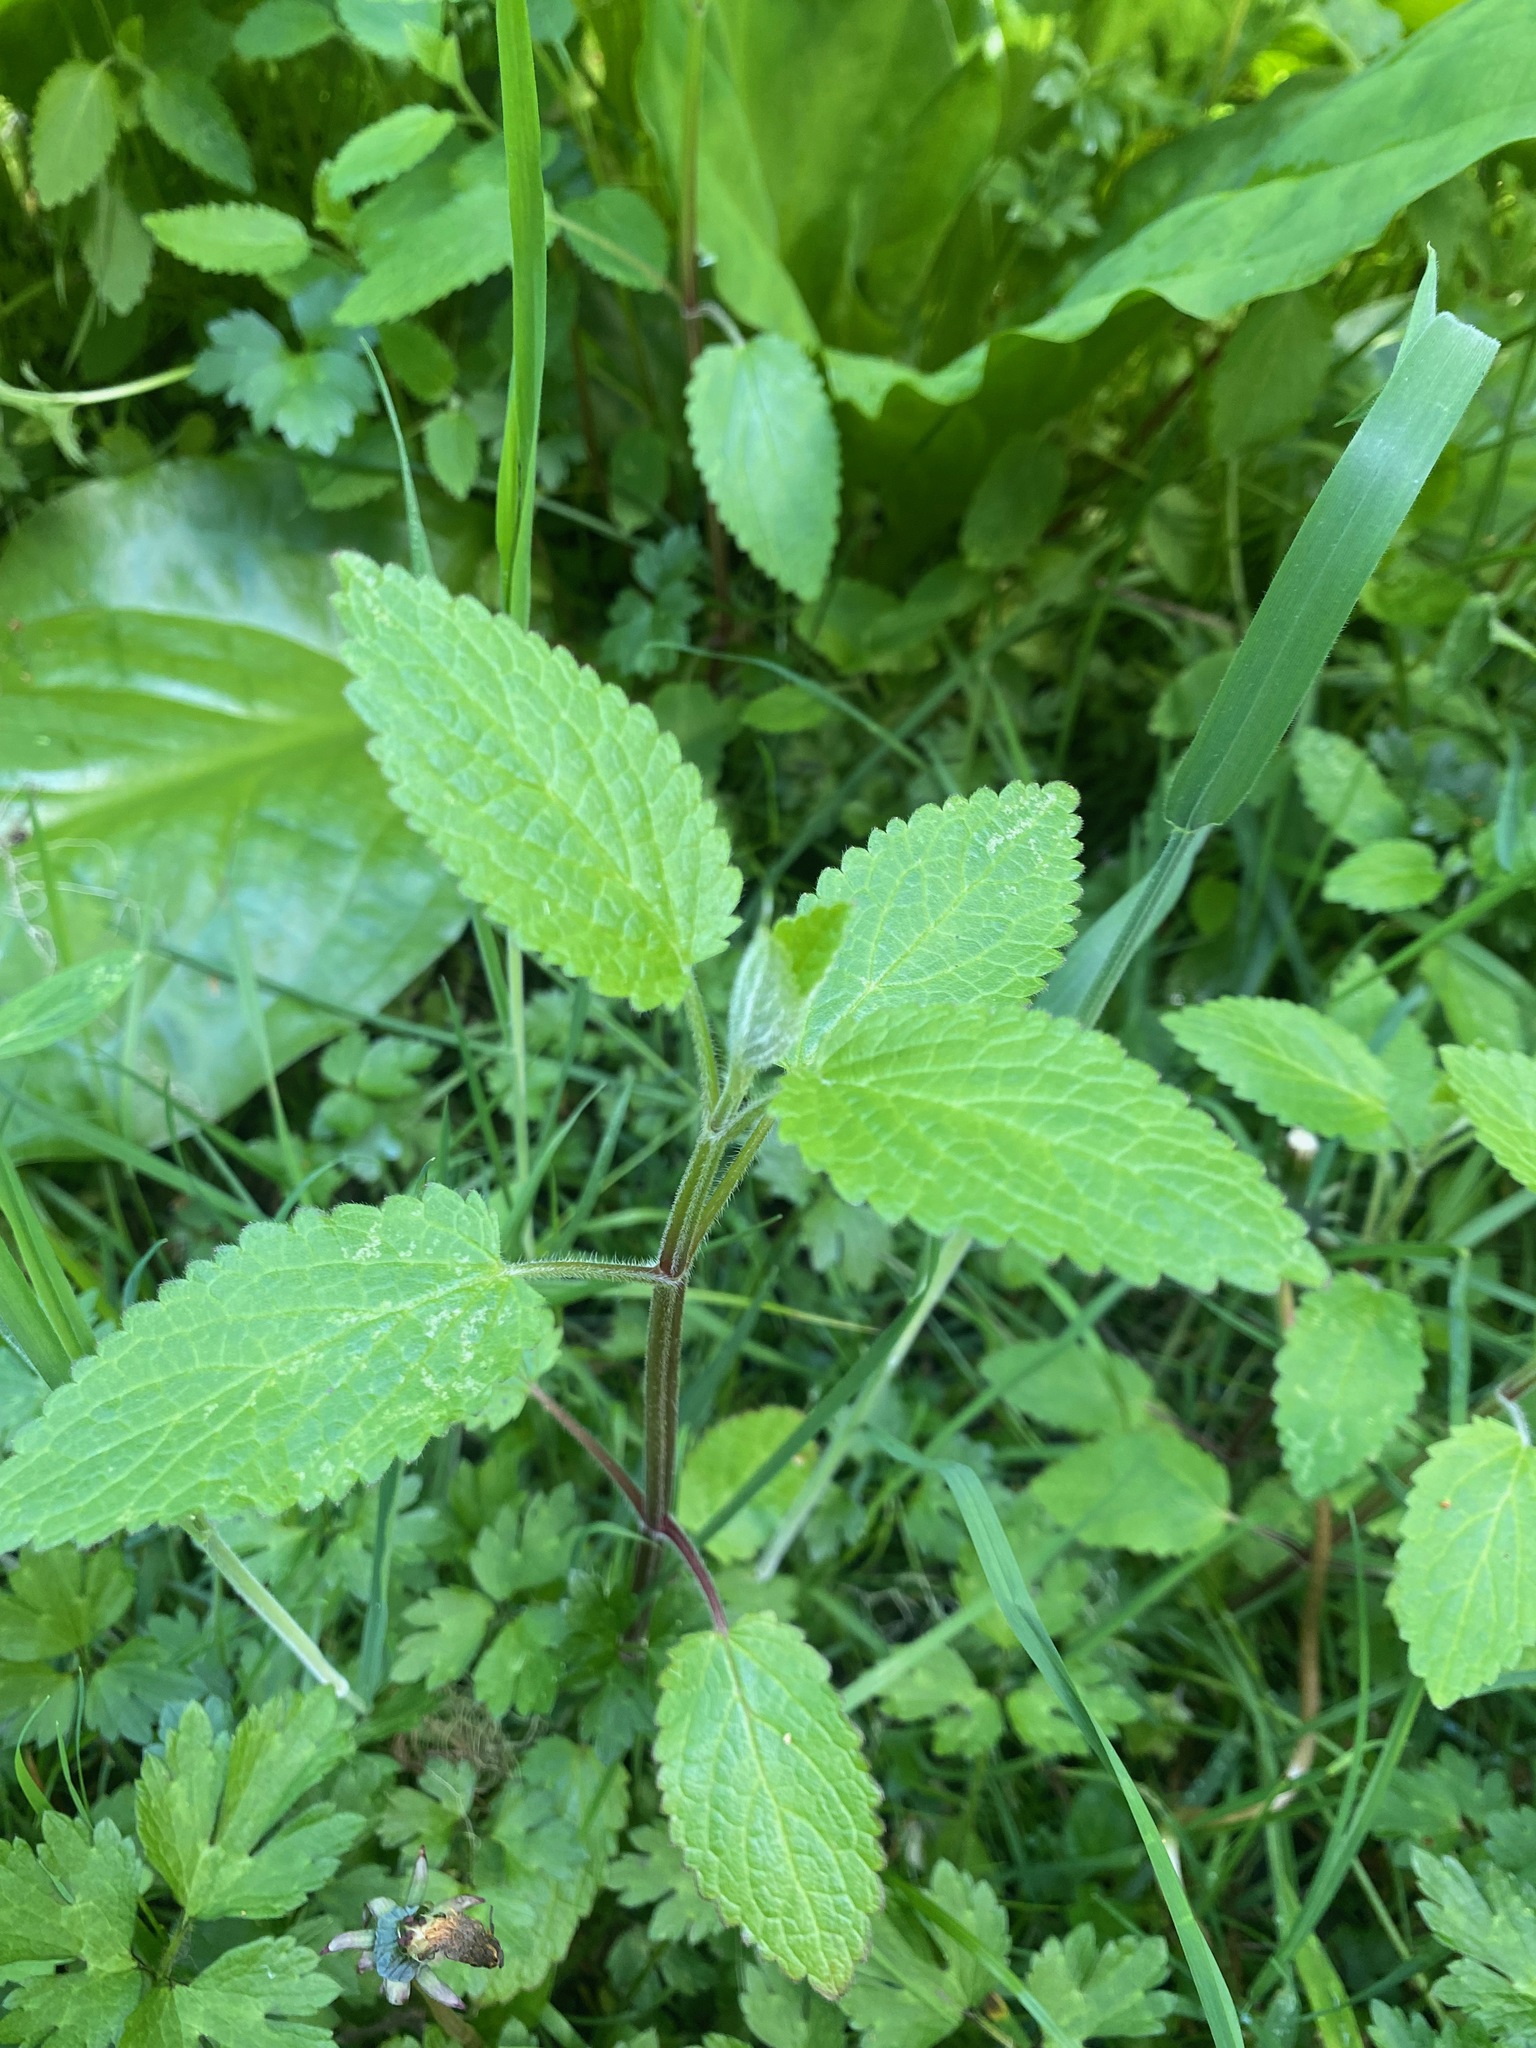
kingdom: Plantae
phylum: Tracheophyta
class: Magnoliopsida
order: Lamiales
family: Lamiaceae
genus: Stachys
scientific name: Stachys chamissonis
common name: Coastal hedge-nettle
